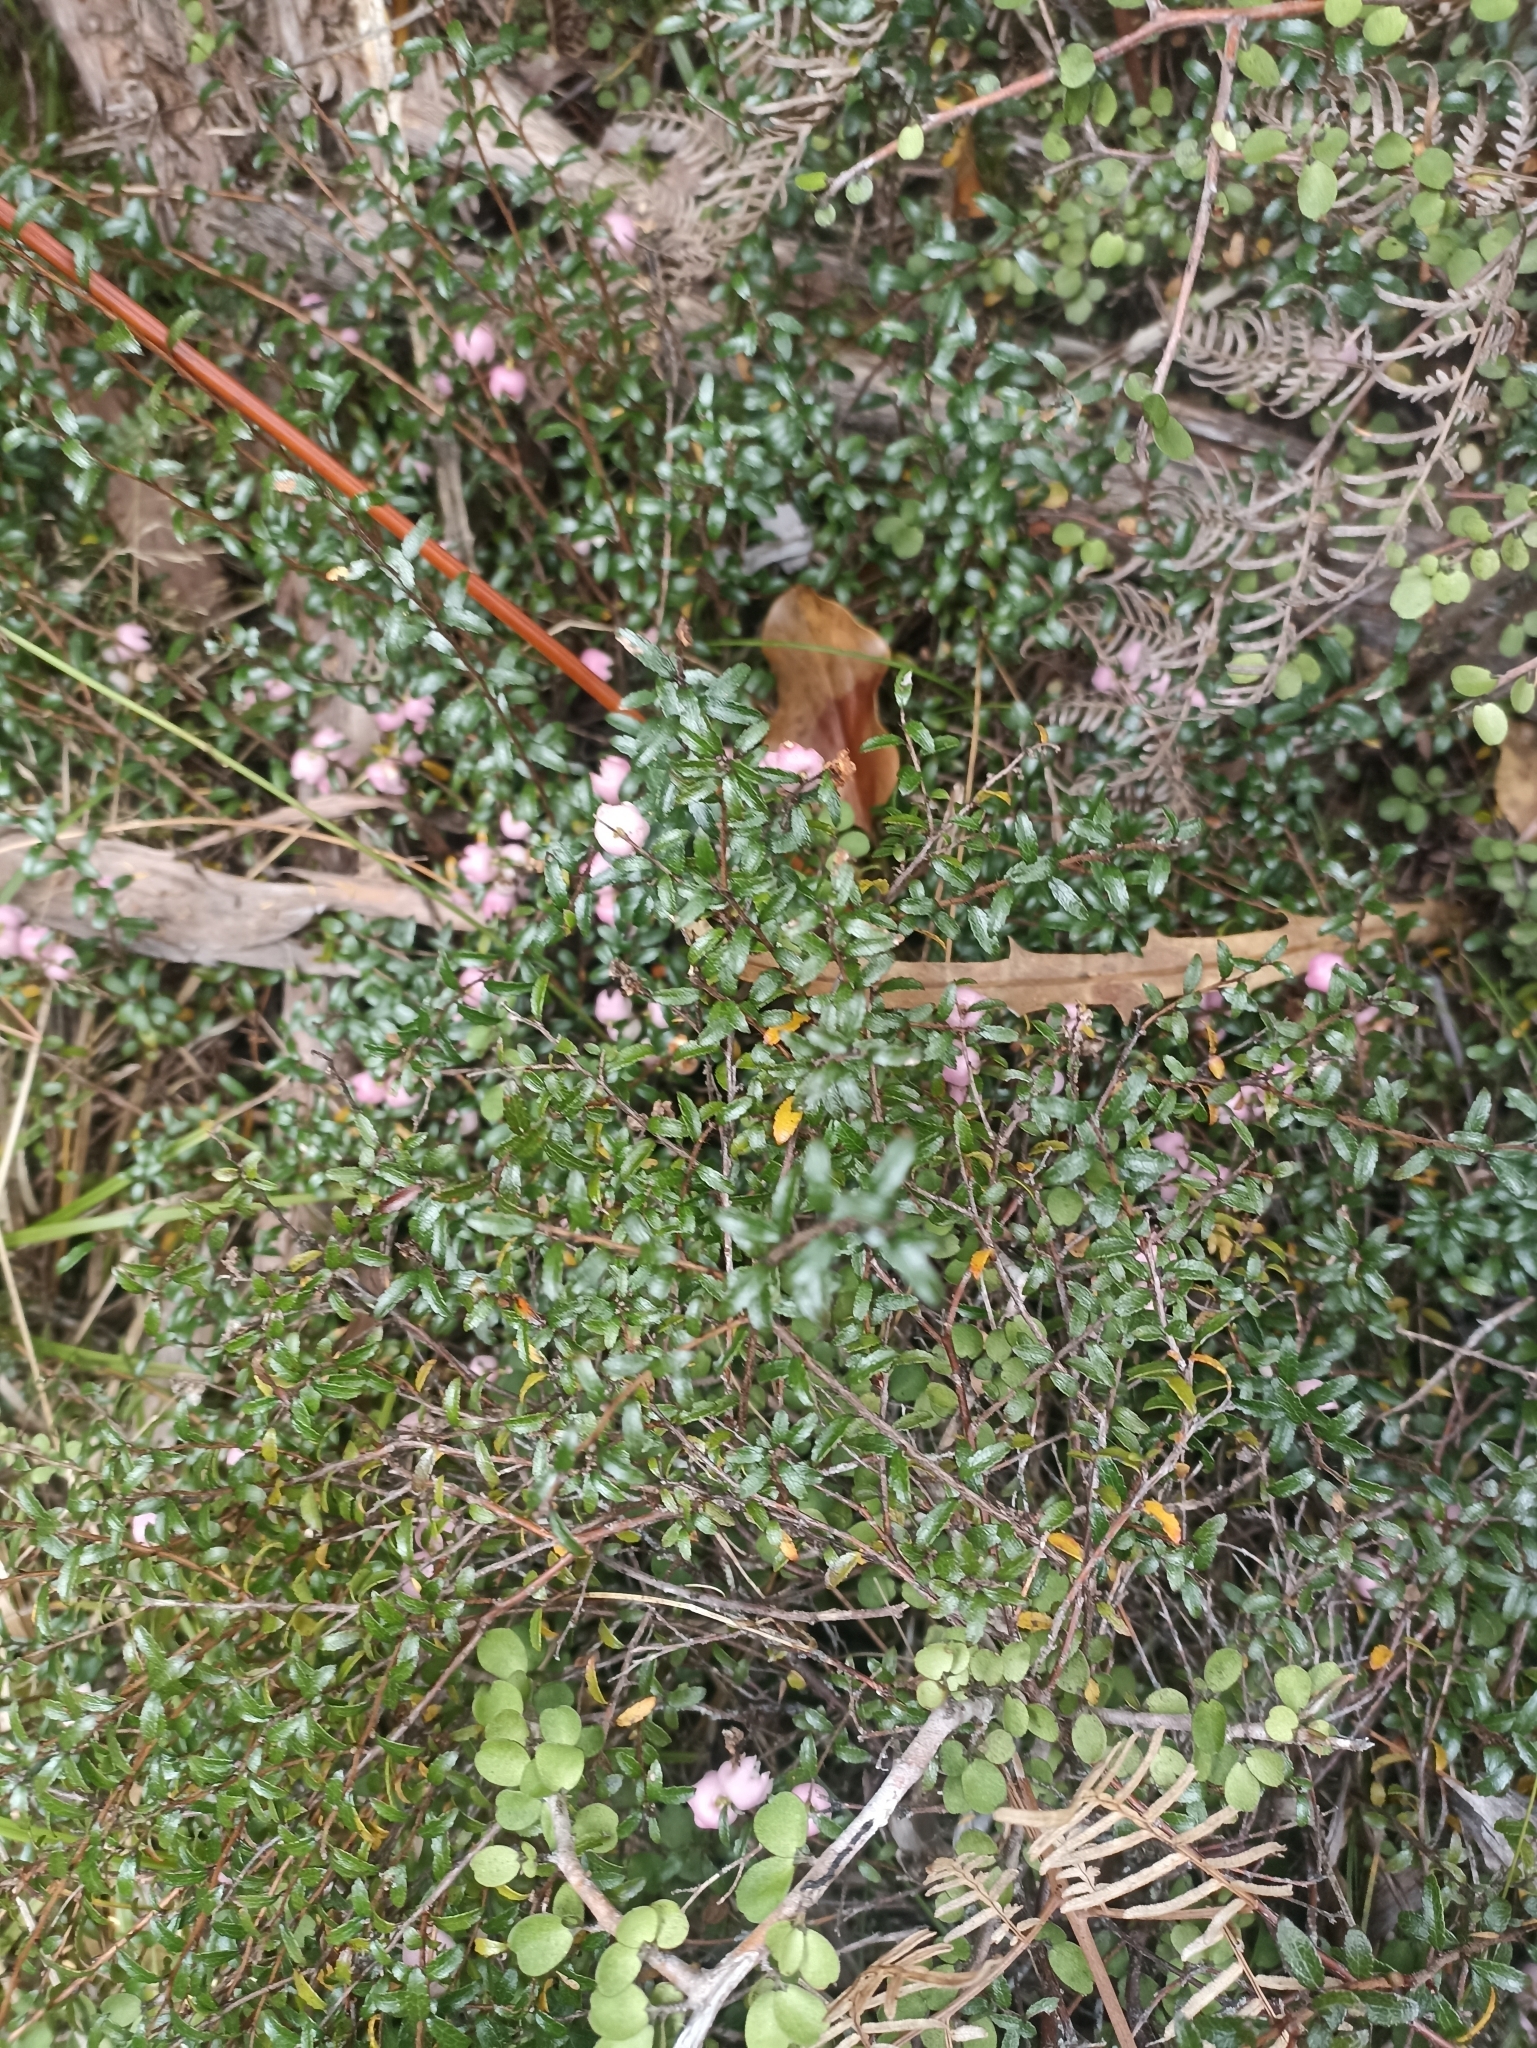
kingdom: Plantae
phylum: Tracheophyta
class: Magnoliopsida
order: Ericales
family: Ericaceae
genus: Gaultheria
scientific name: Gaultheria
